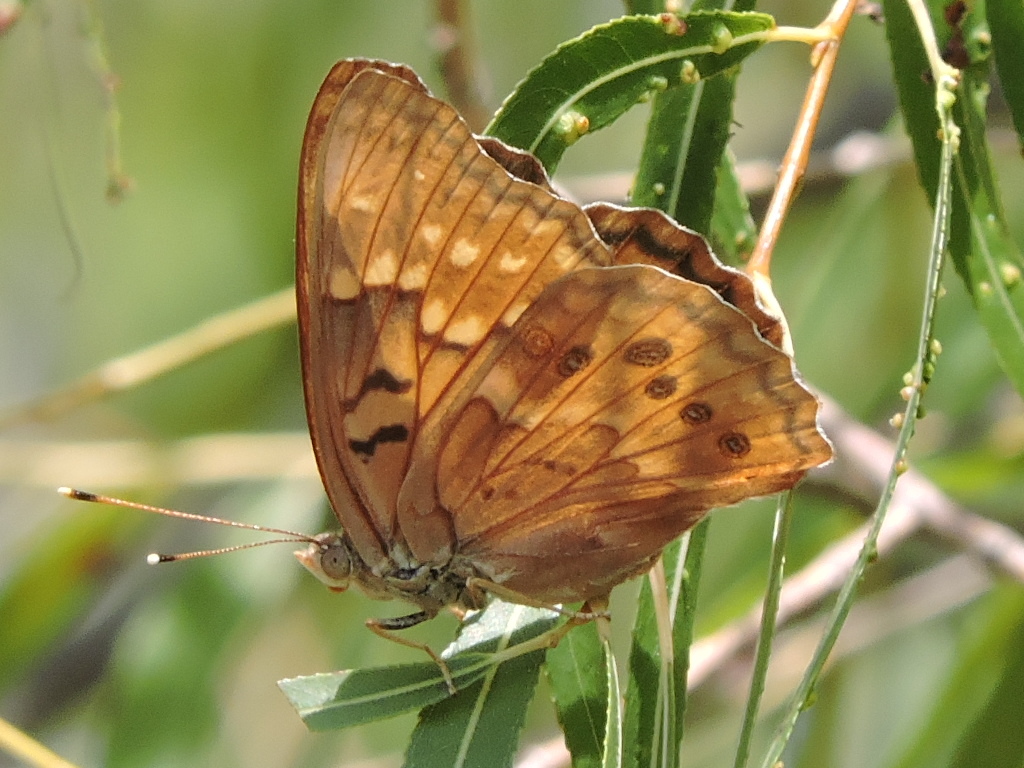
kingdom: Animalia
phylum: Arthropoda
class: Insecta
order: Lepidoptera
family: Nymphalidae
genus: Asterocampa
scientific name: Asterocampa clyton
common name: Tawny emperor
